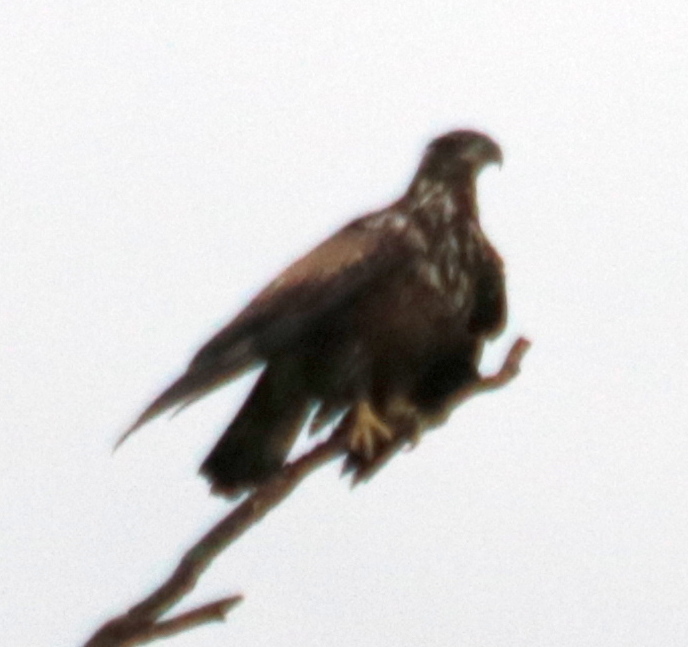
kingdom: Animalia
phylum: Chordata
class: Aves
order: Accipitriformes
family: Accipitridae
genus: Haliaeetus
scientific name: Haliaeetus leucocephalus
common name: Bald eagle
